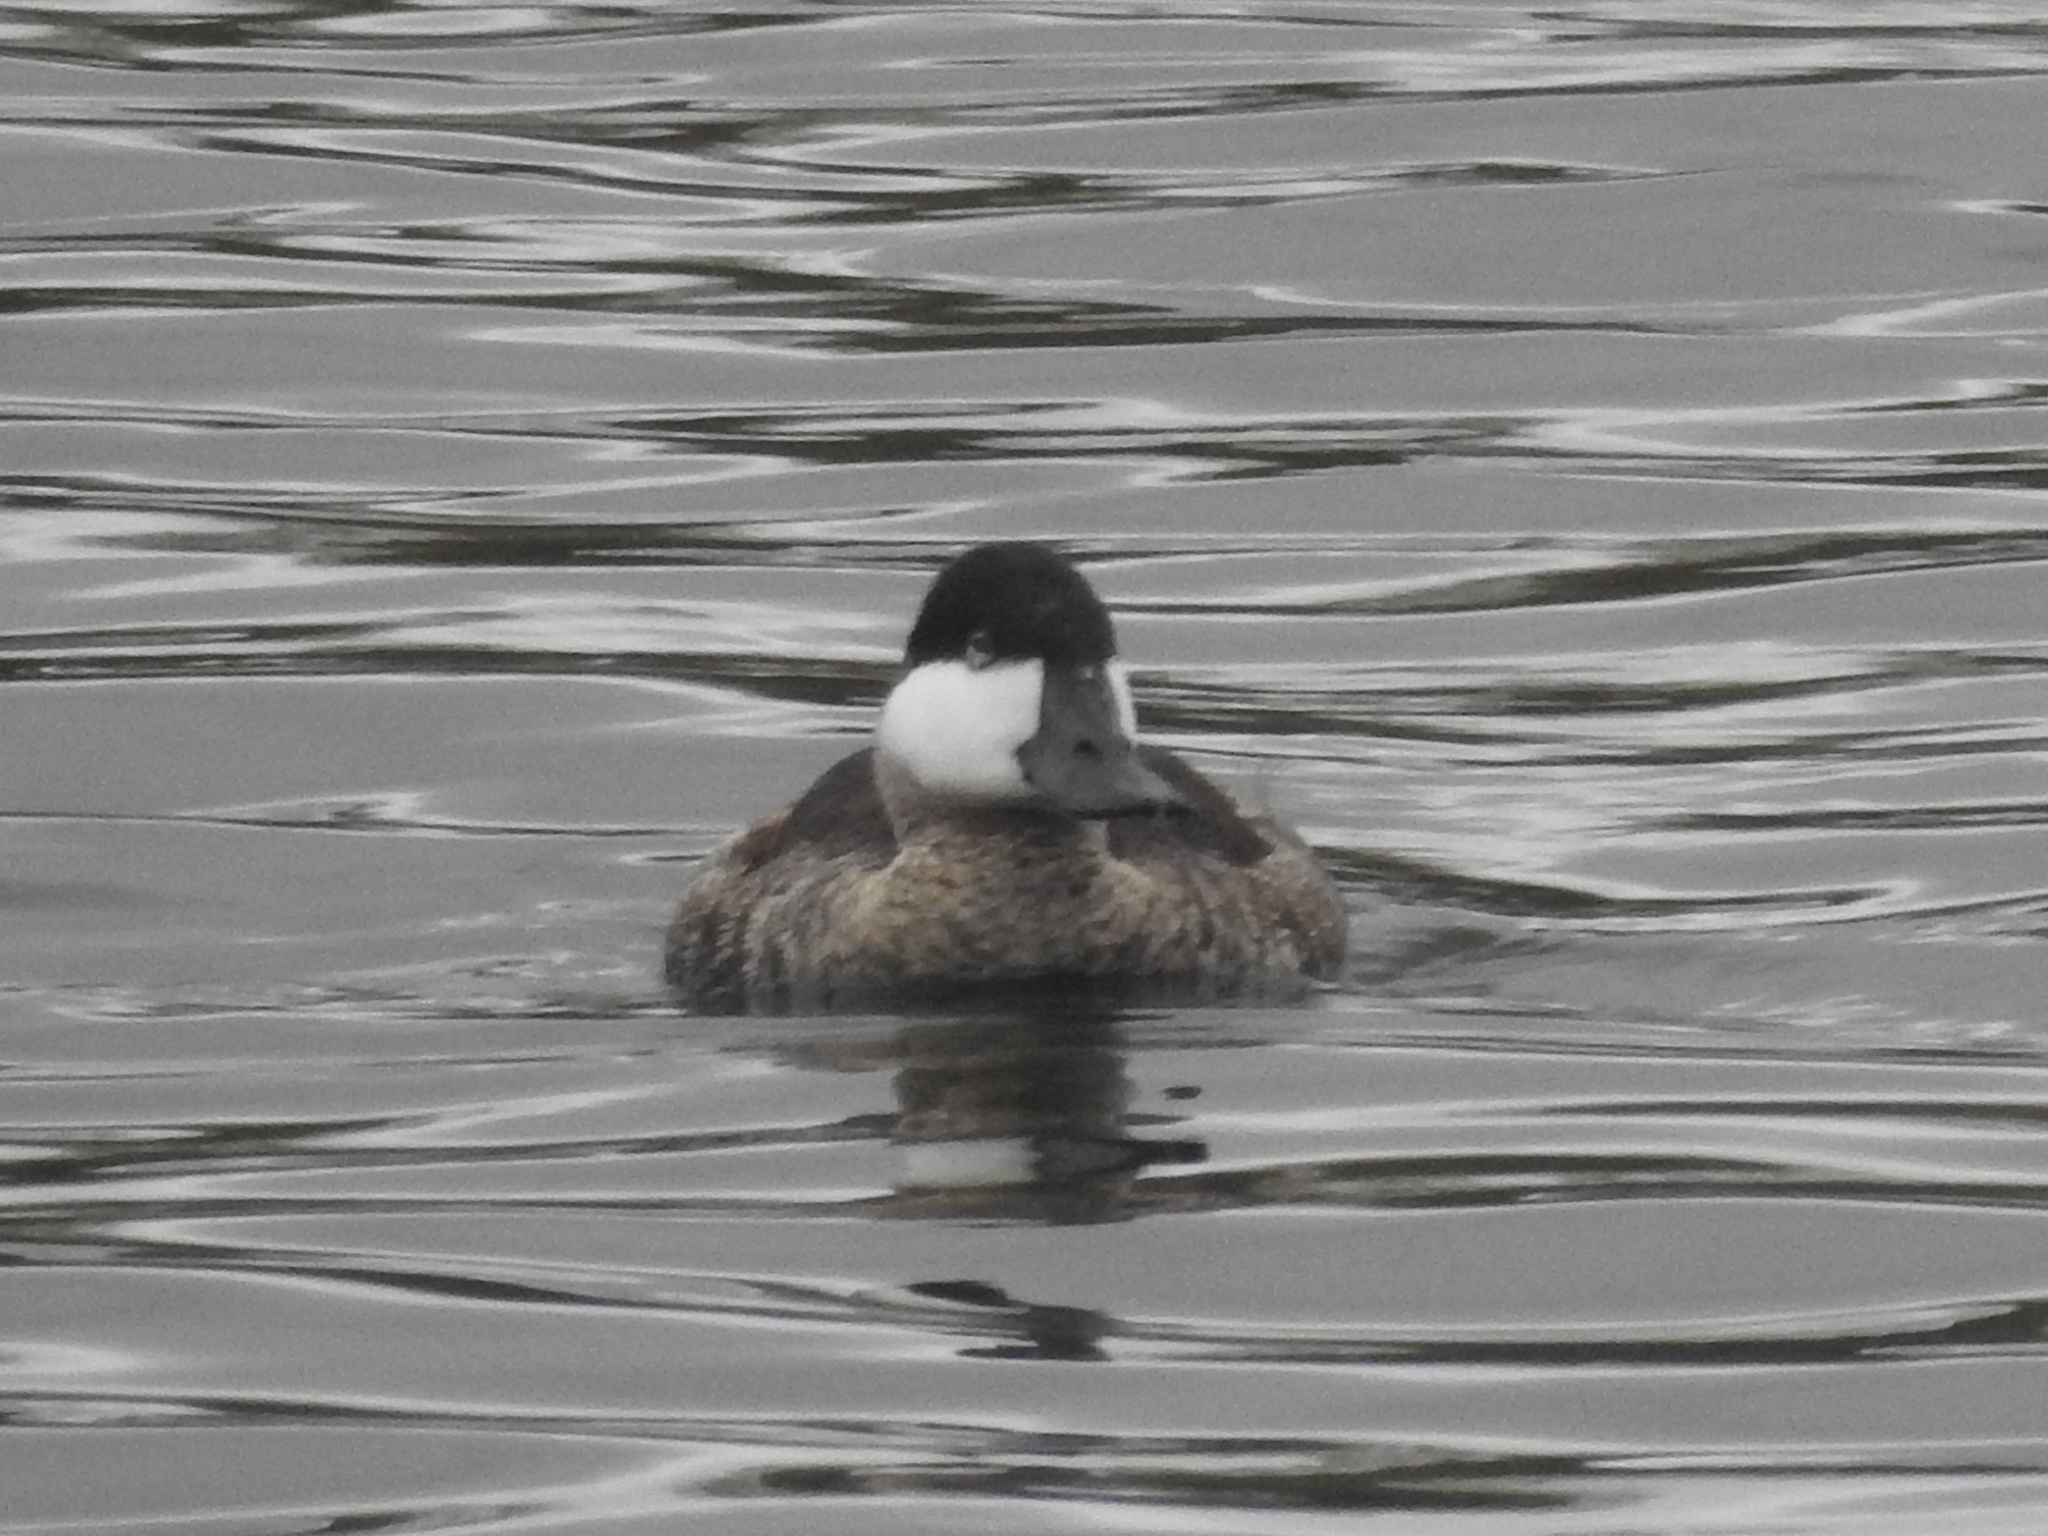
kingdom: Animalia
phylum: Chordata
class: Aves
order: Anseriformes
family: Anatidae
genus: Oxyura
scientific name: Oxyura jamaicensis
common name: Ruddy duck
